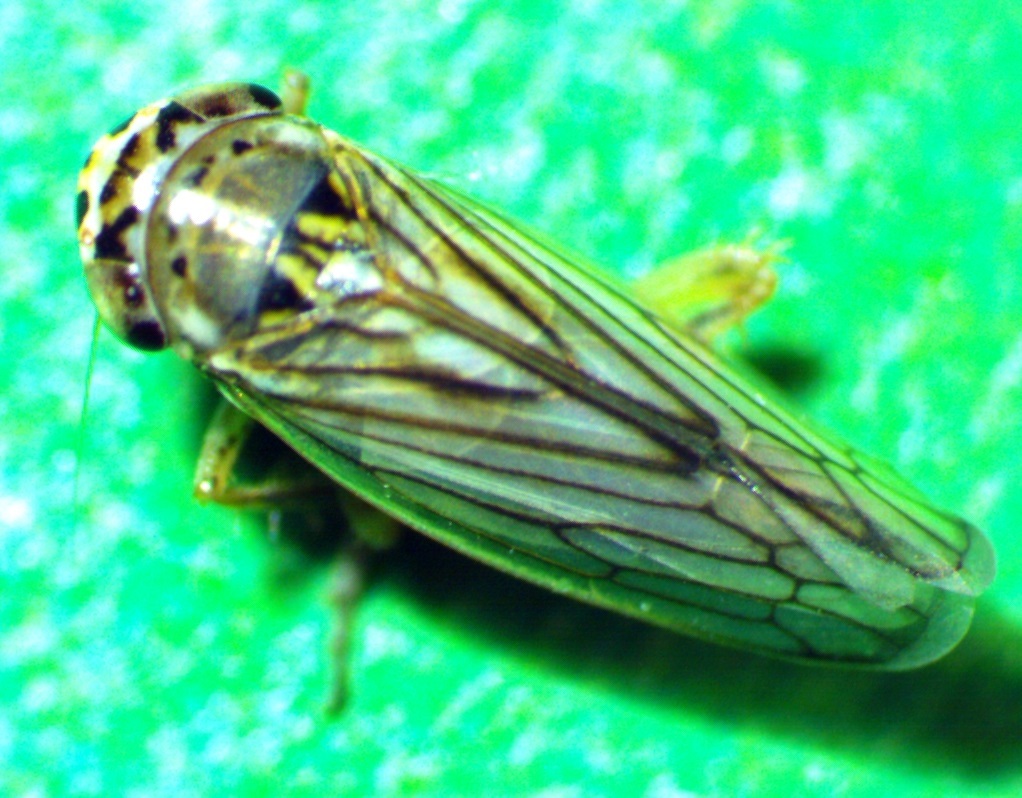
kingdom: Animalia
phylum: Arthropoda
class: Insecta
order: Hemiptera
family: Cicadellidae
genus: Exitianus
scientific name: Exitianus exitiosus
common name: Gray lawn leafhopper
